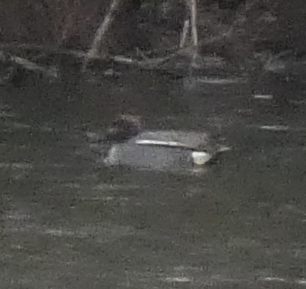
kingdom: Animalia
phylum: Chordata
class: Aves
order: Anseriformes
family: Anatidae
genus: Anas
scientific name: Anas crecca
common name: Eurasian teal
